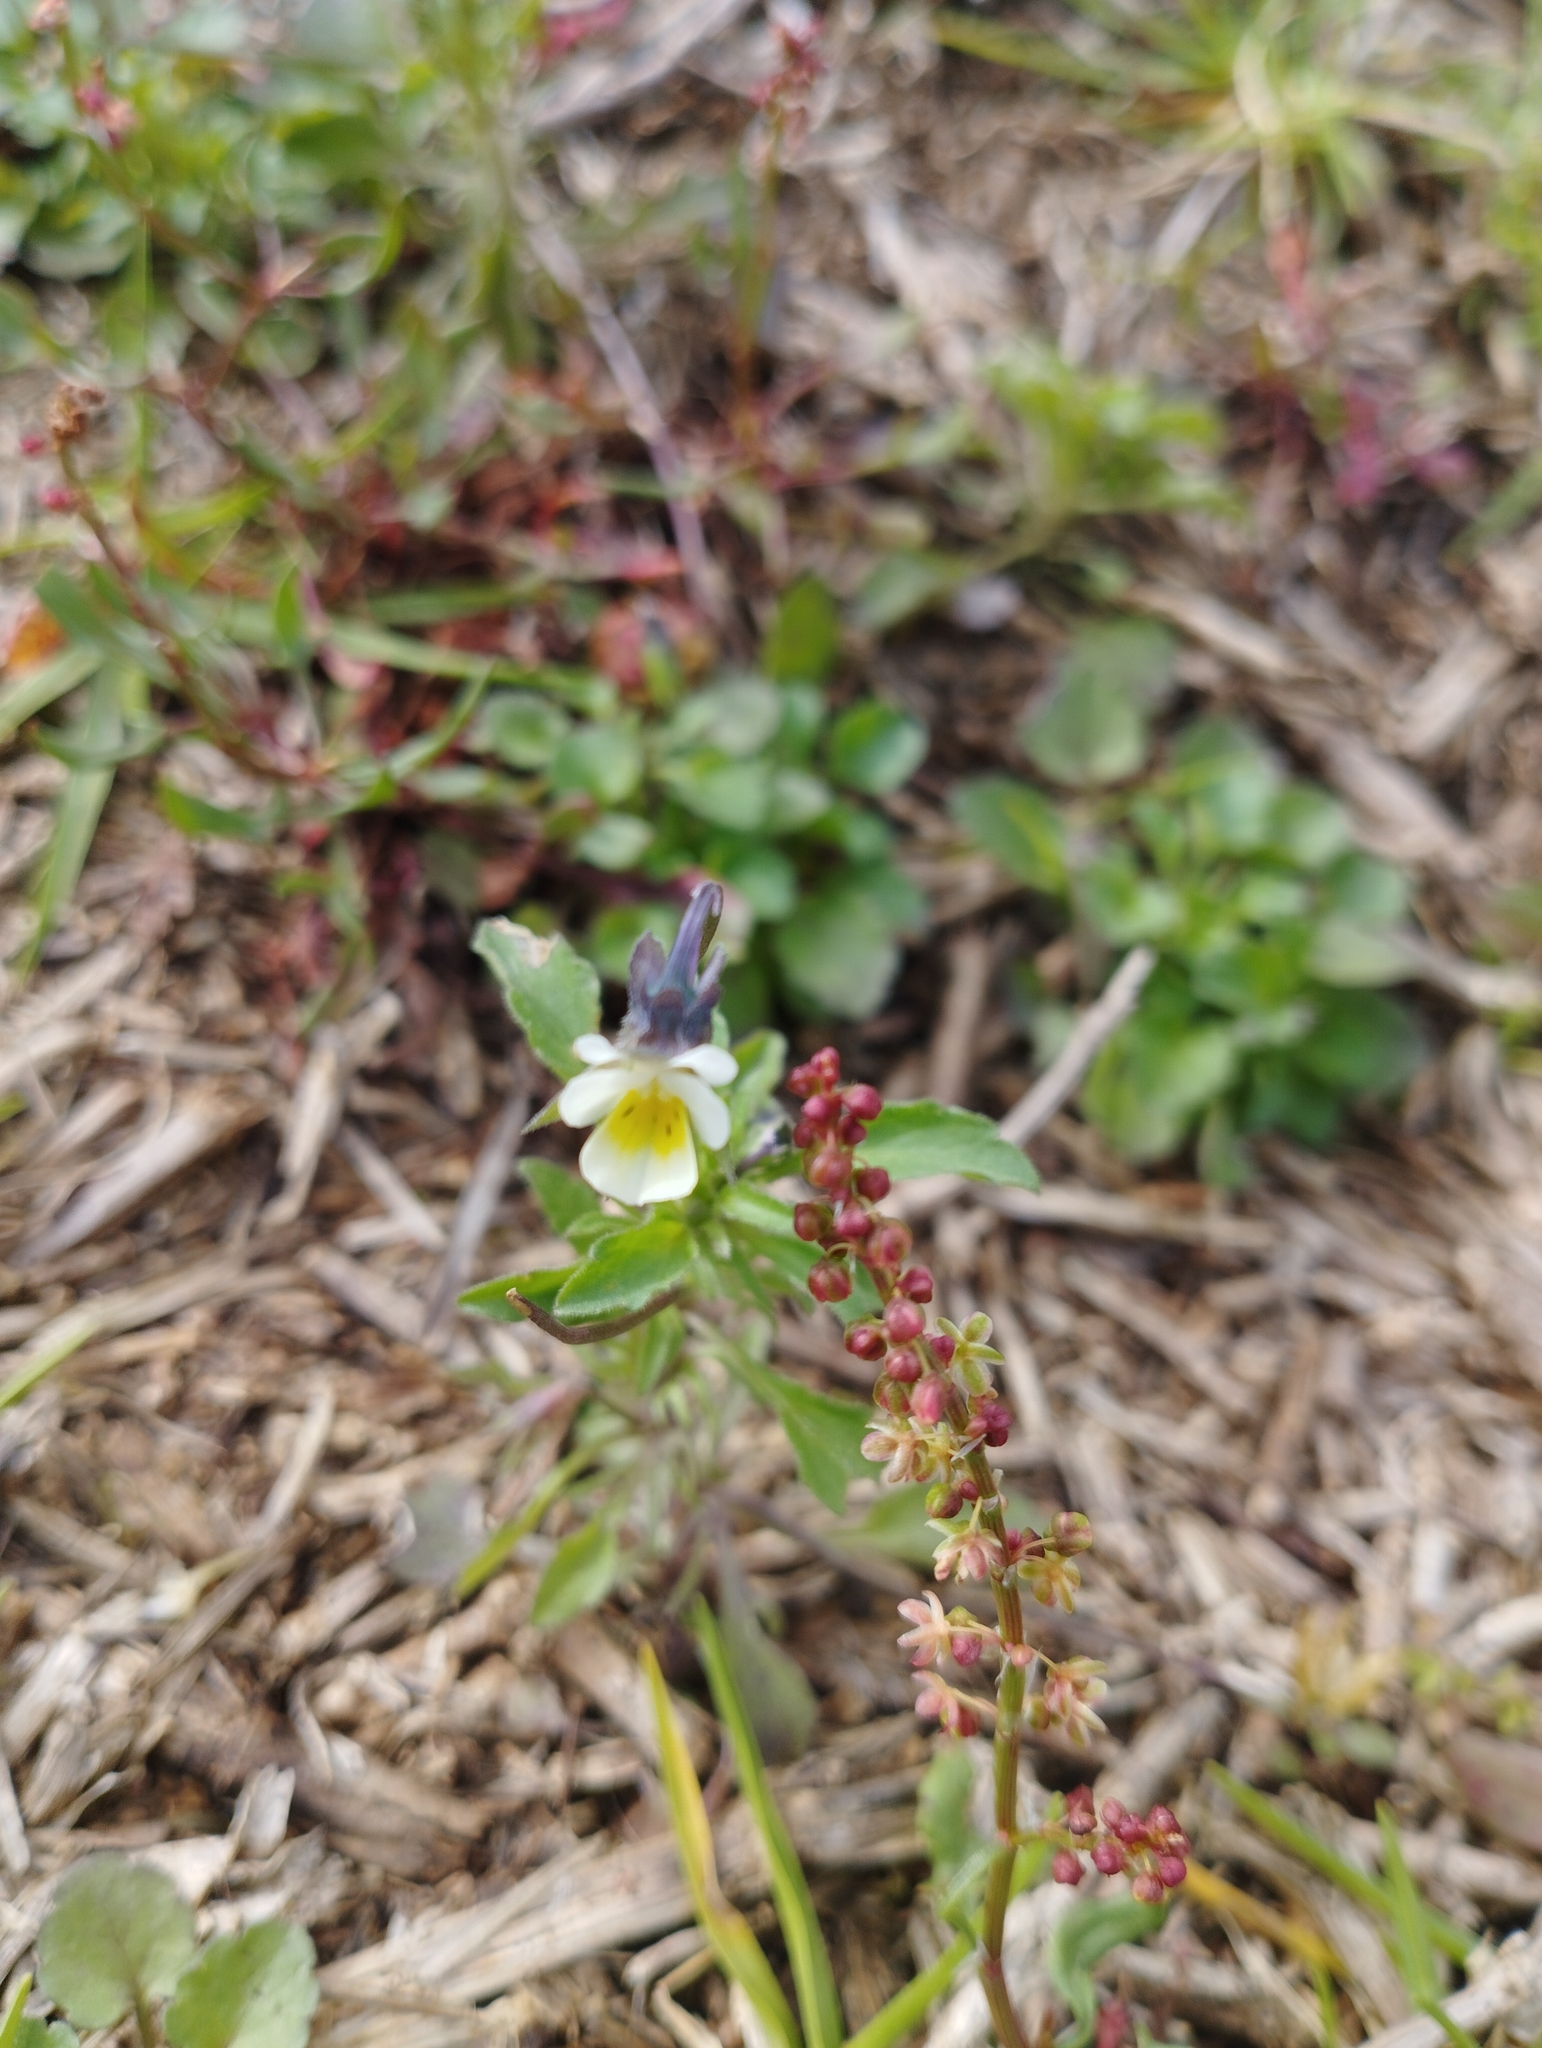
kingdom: Plantae
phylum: Tracheophyta
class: Magnoliopsida
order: Malpighiales
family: Violaceae
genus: Viola
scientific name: Viola arvensis
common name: Field pansy
